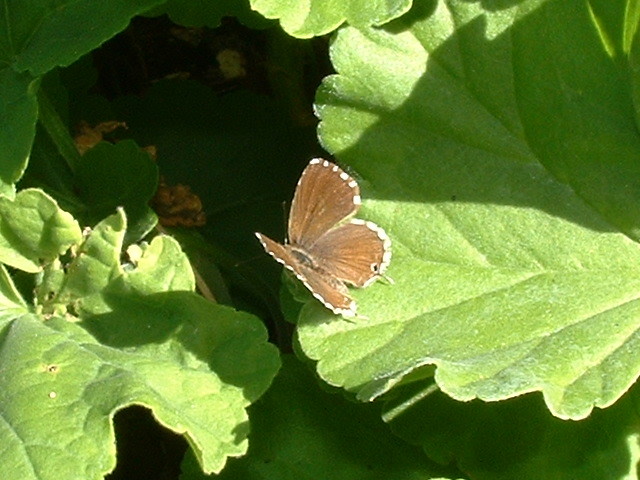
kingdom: Animalia
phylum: Arthropoda
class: Insecta
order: Lepidoptera
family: Lycaenidae
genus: Cacyreus
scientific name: Cacyreus marshalli
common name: Geranium bronze
